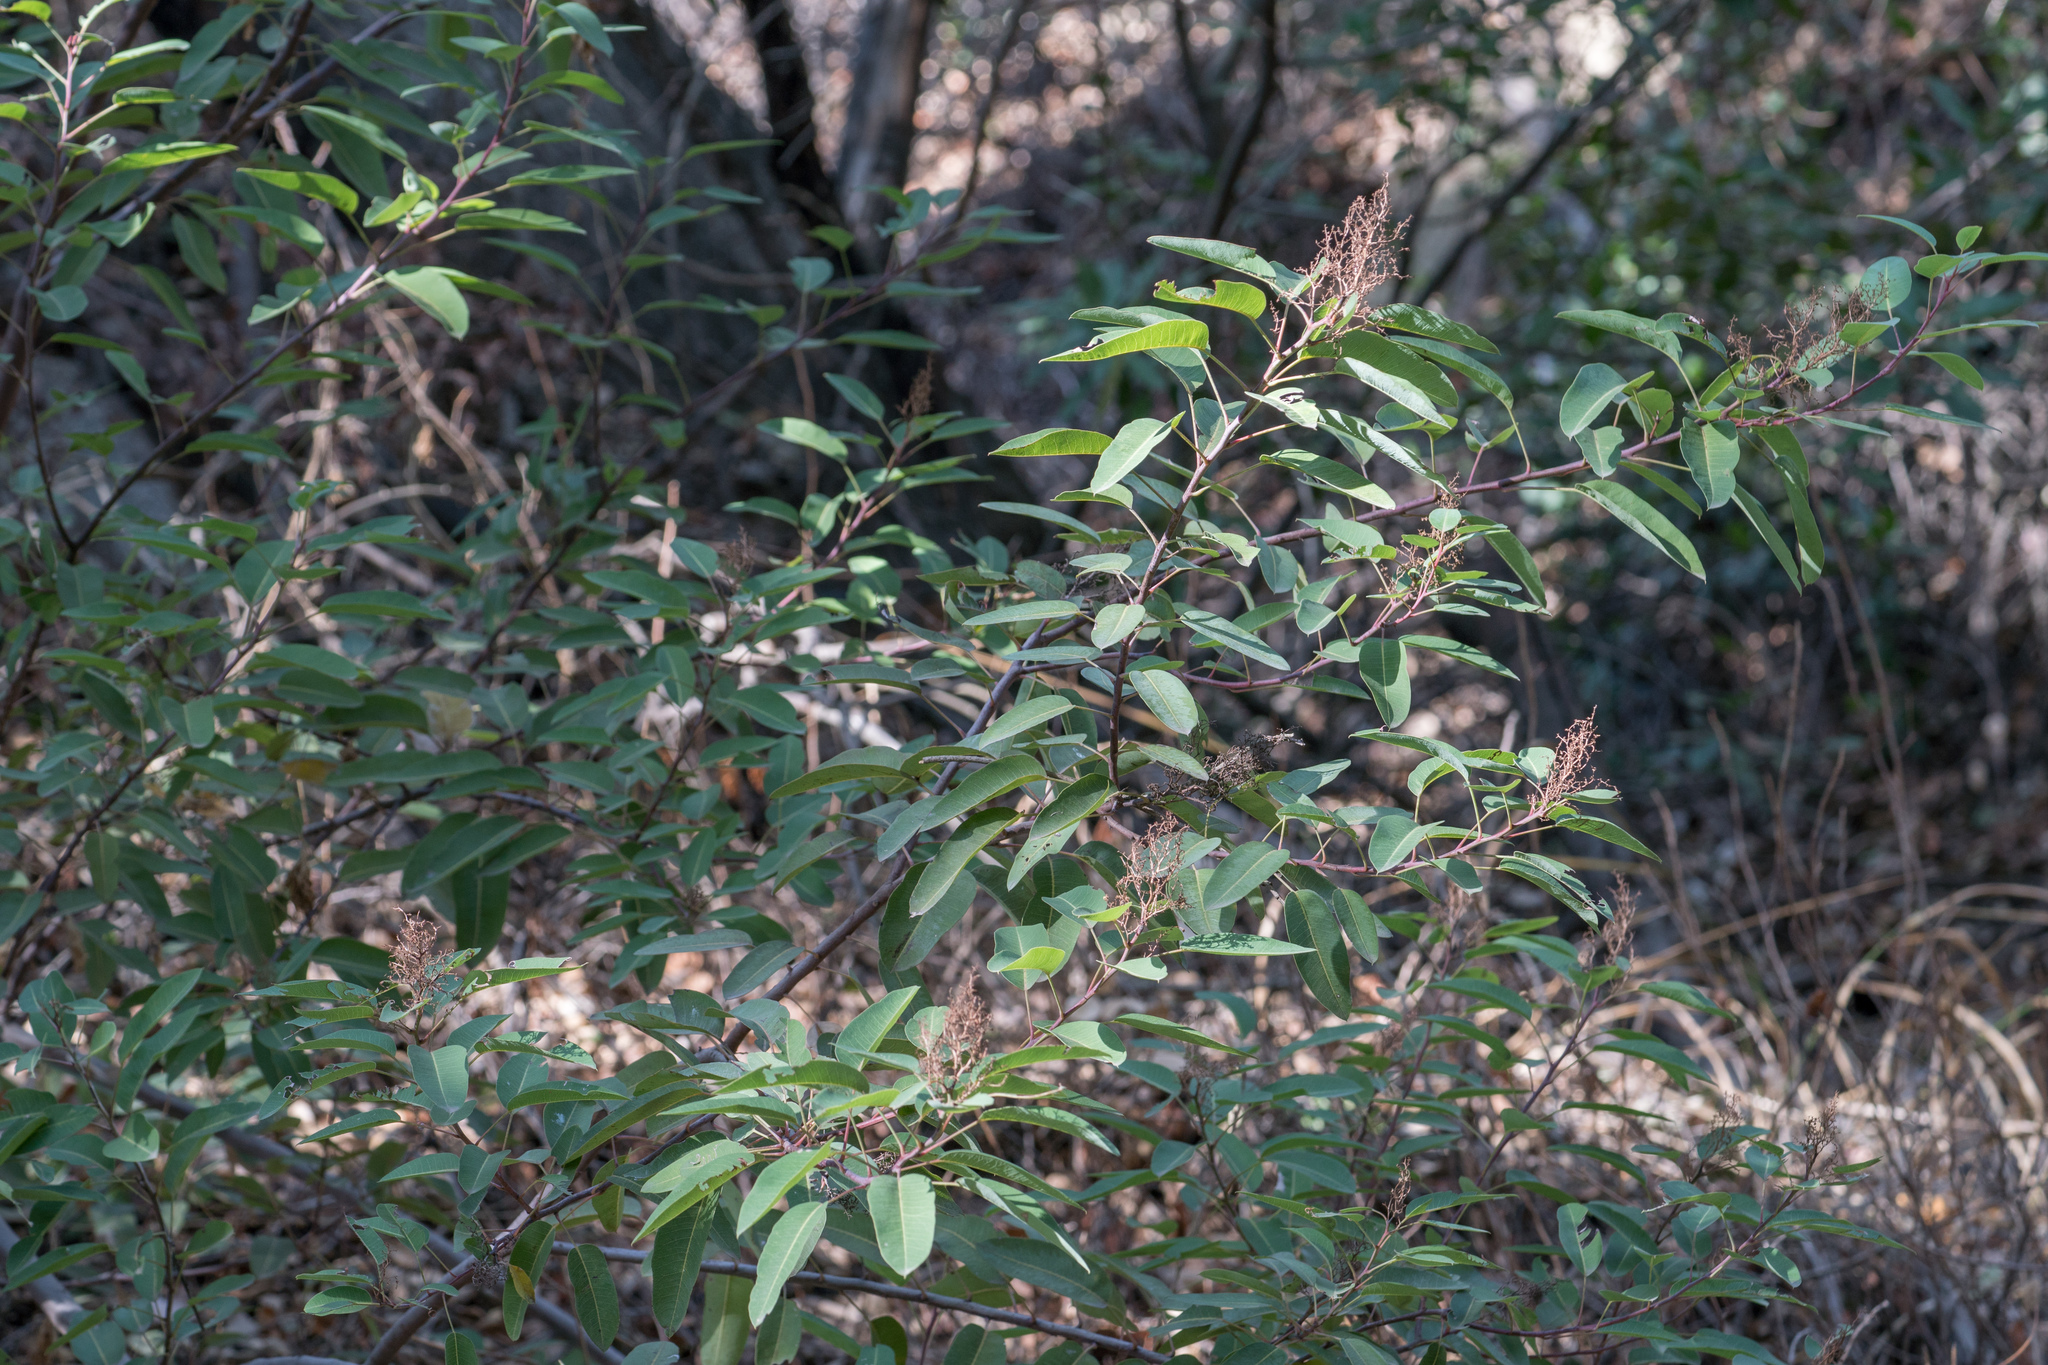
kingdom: Plantae
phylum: Tracheophyta
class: Magnoliopsida
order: Sapindales
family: Anacardiaceae
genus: Malosma
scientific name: Malosma laurina
